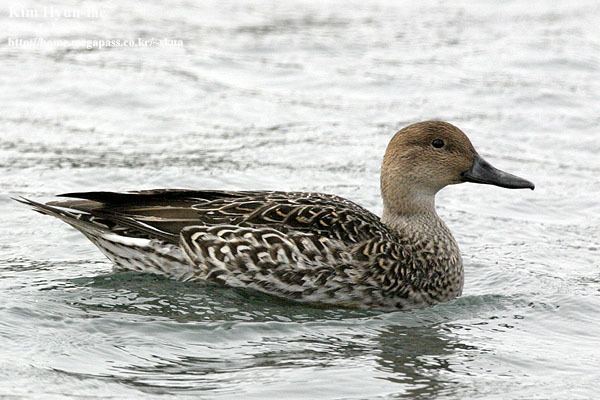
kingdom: Animalia
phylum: Chordata
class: Aves
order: Anseriformes
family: Anatidae
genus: Anas
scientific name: Anas acuta
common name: Northern pintail
